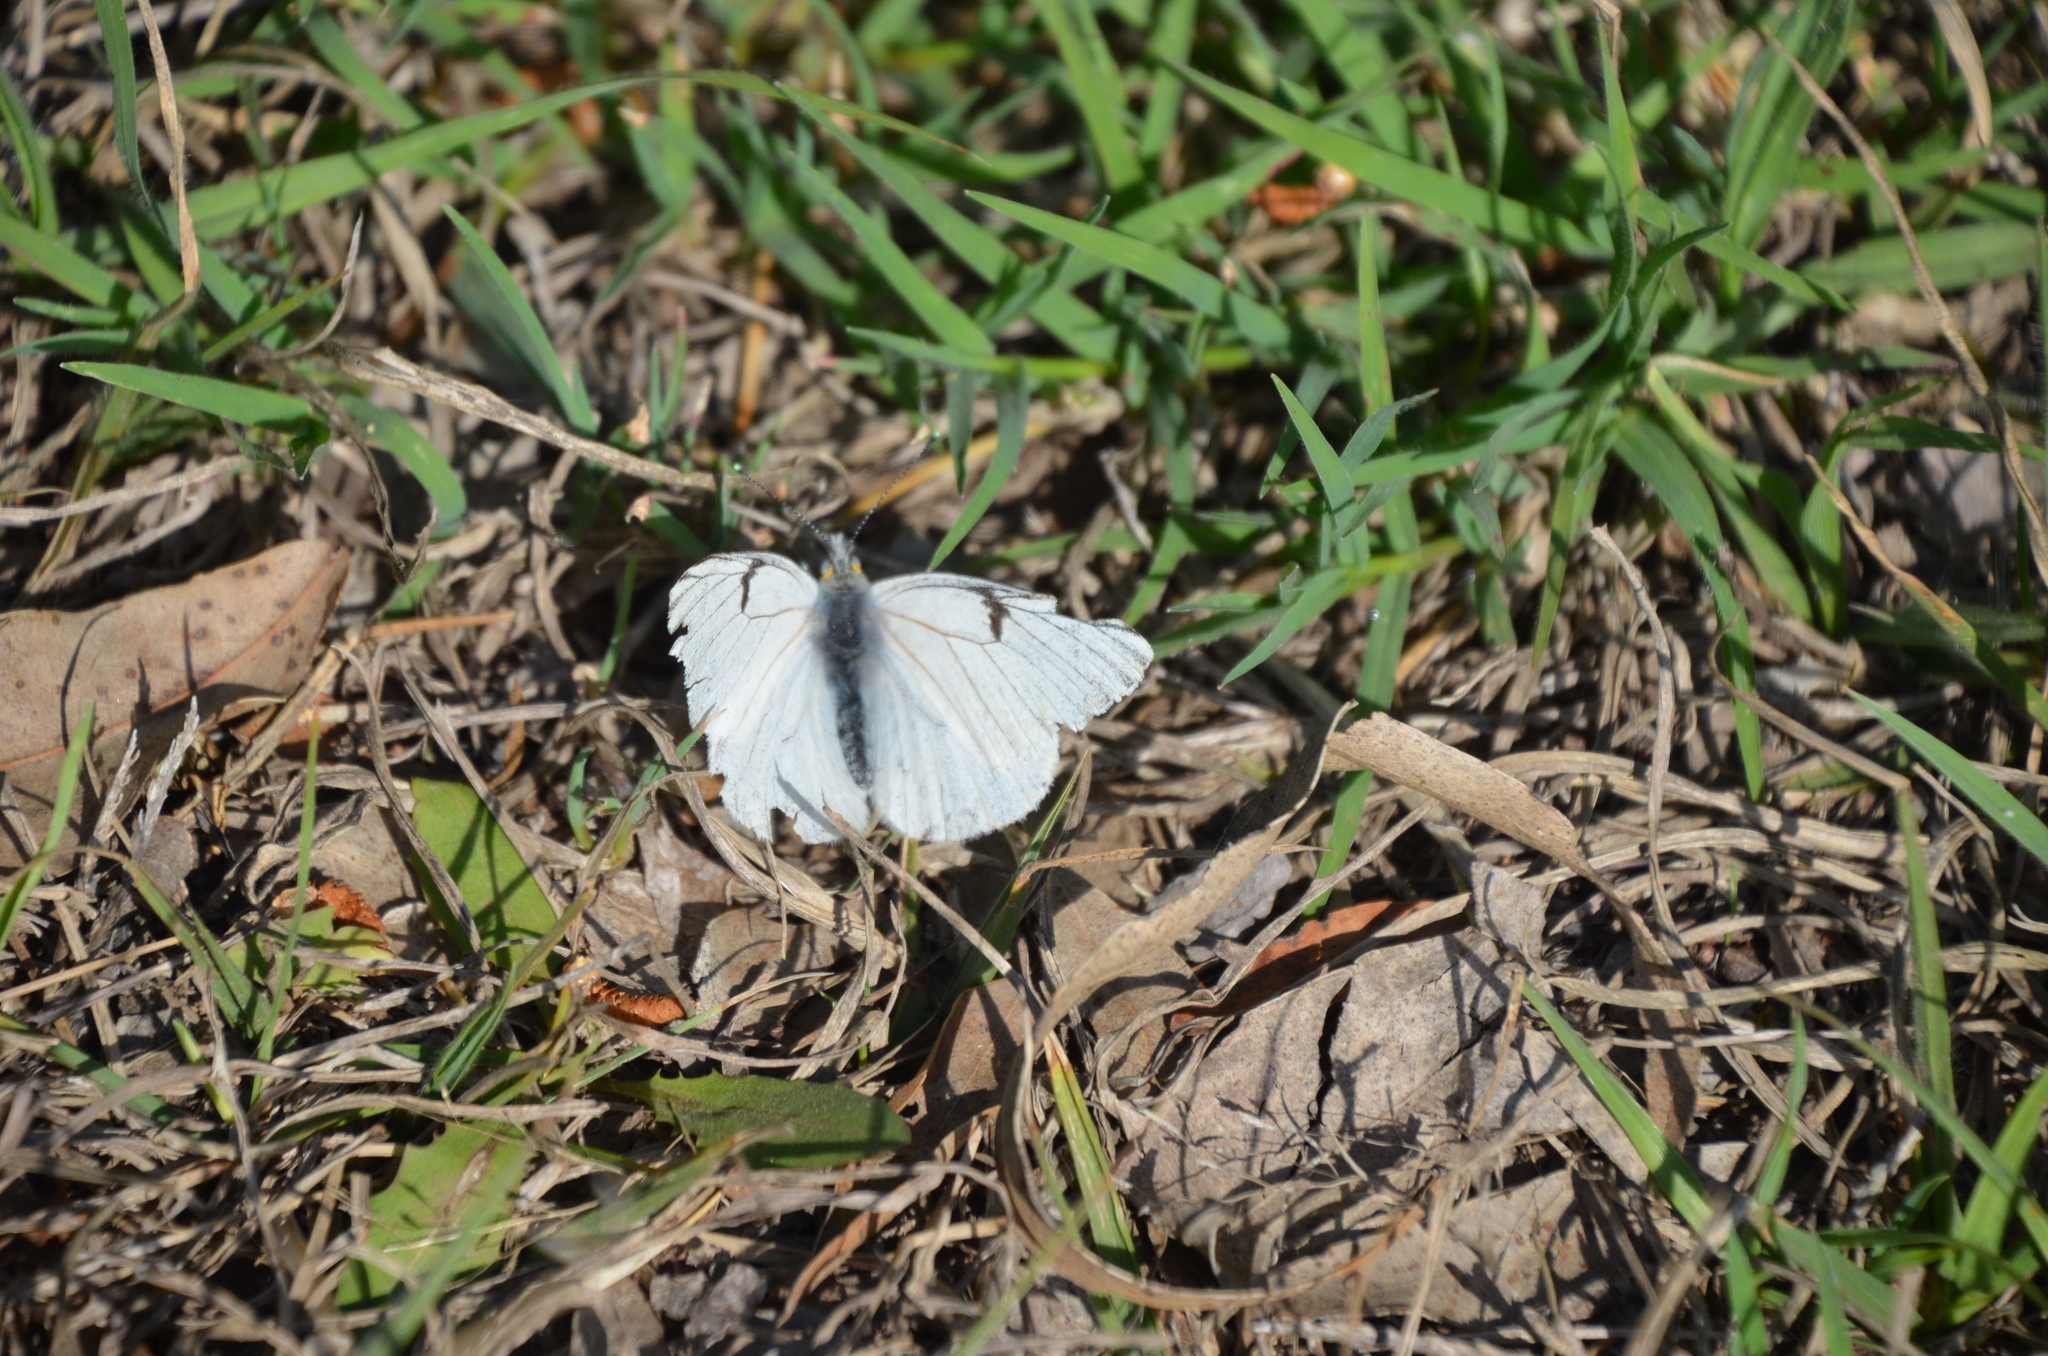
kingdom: Animalia
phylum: Arthropoda
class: Insecta
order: Lepidoptera
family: Pieridae
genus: Tatochila
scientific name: Tatochila mercedis
